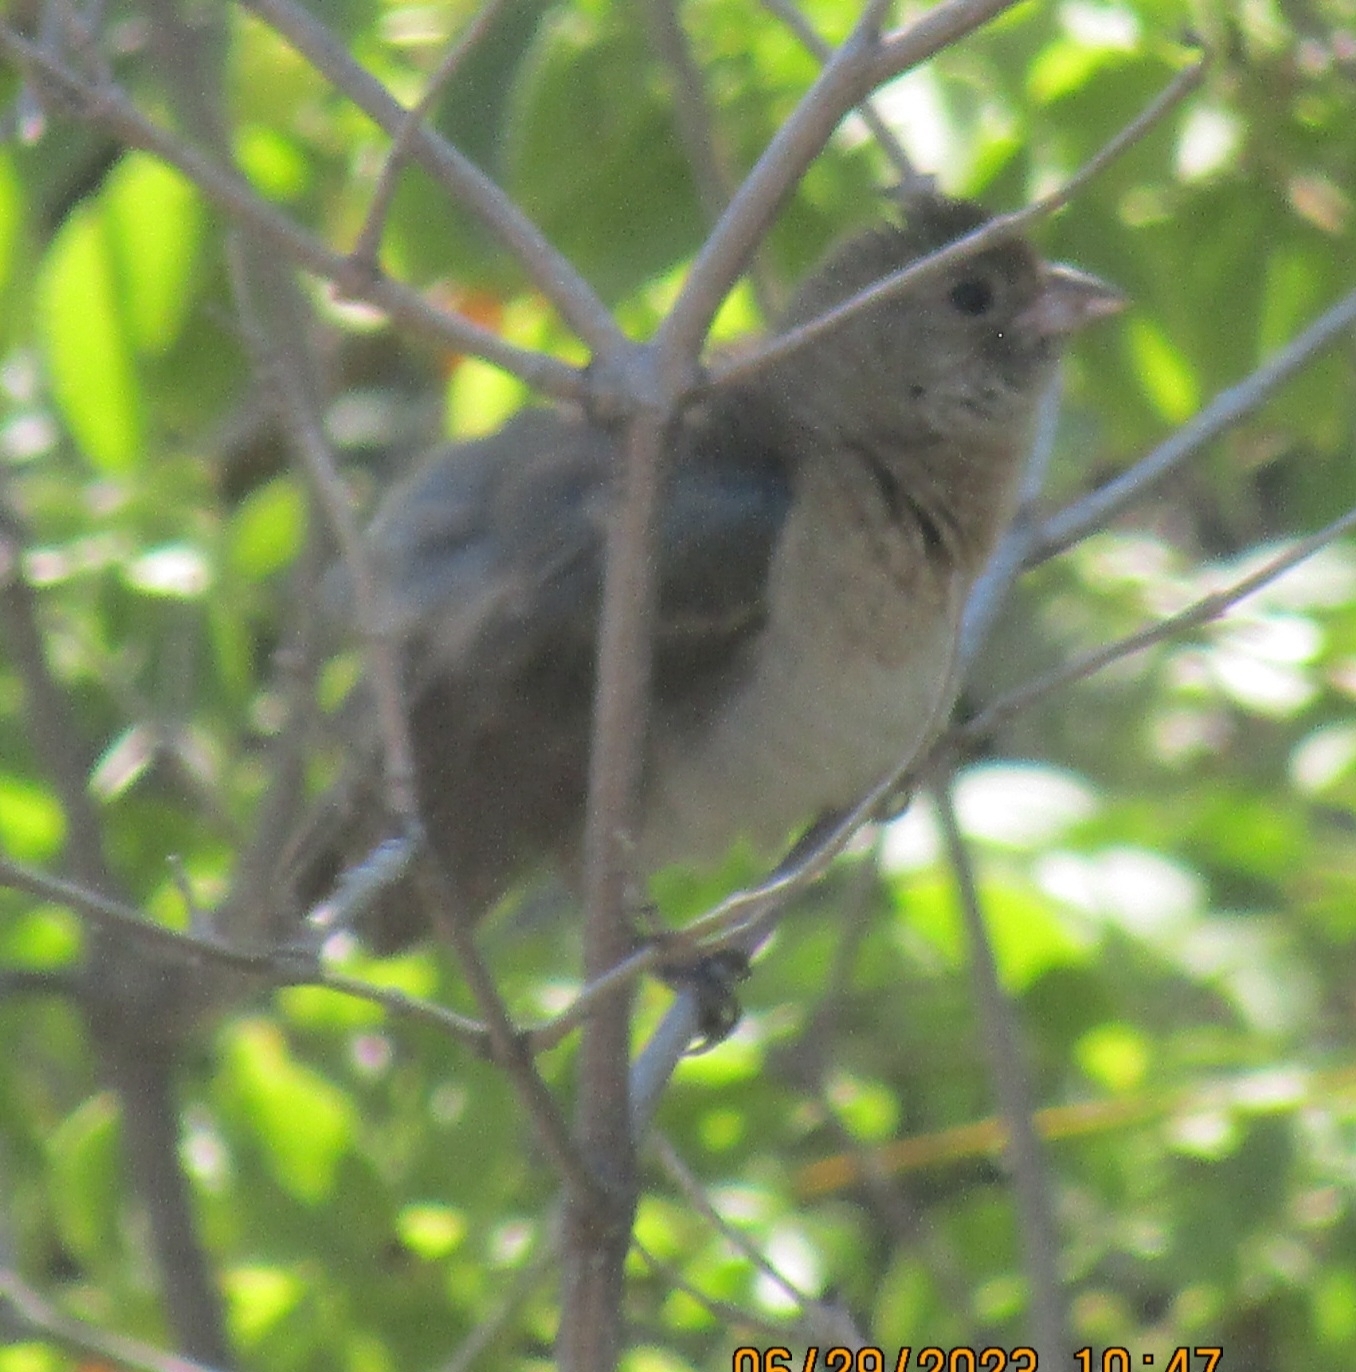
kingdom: Animalia
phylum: Chordata
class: Aves
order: Passeriformes
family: Cardinalidae
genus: Passerina
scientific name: Passerina amoena
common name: Lazuli bunting
